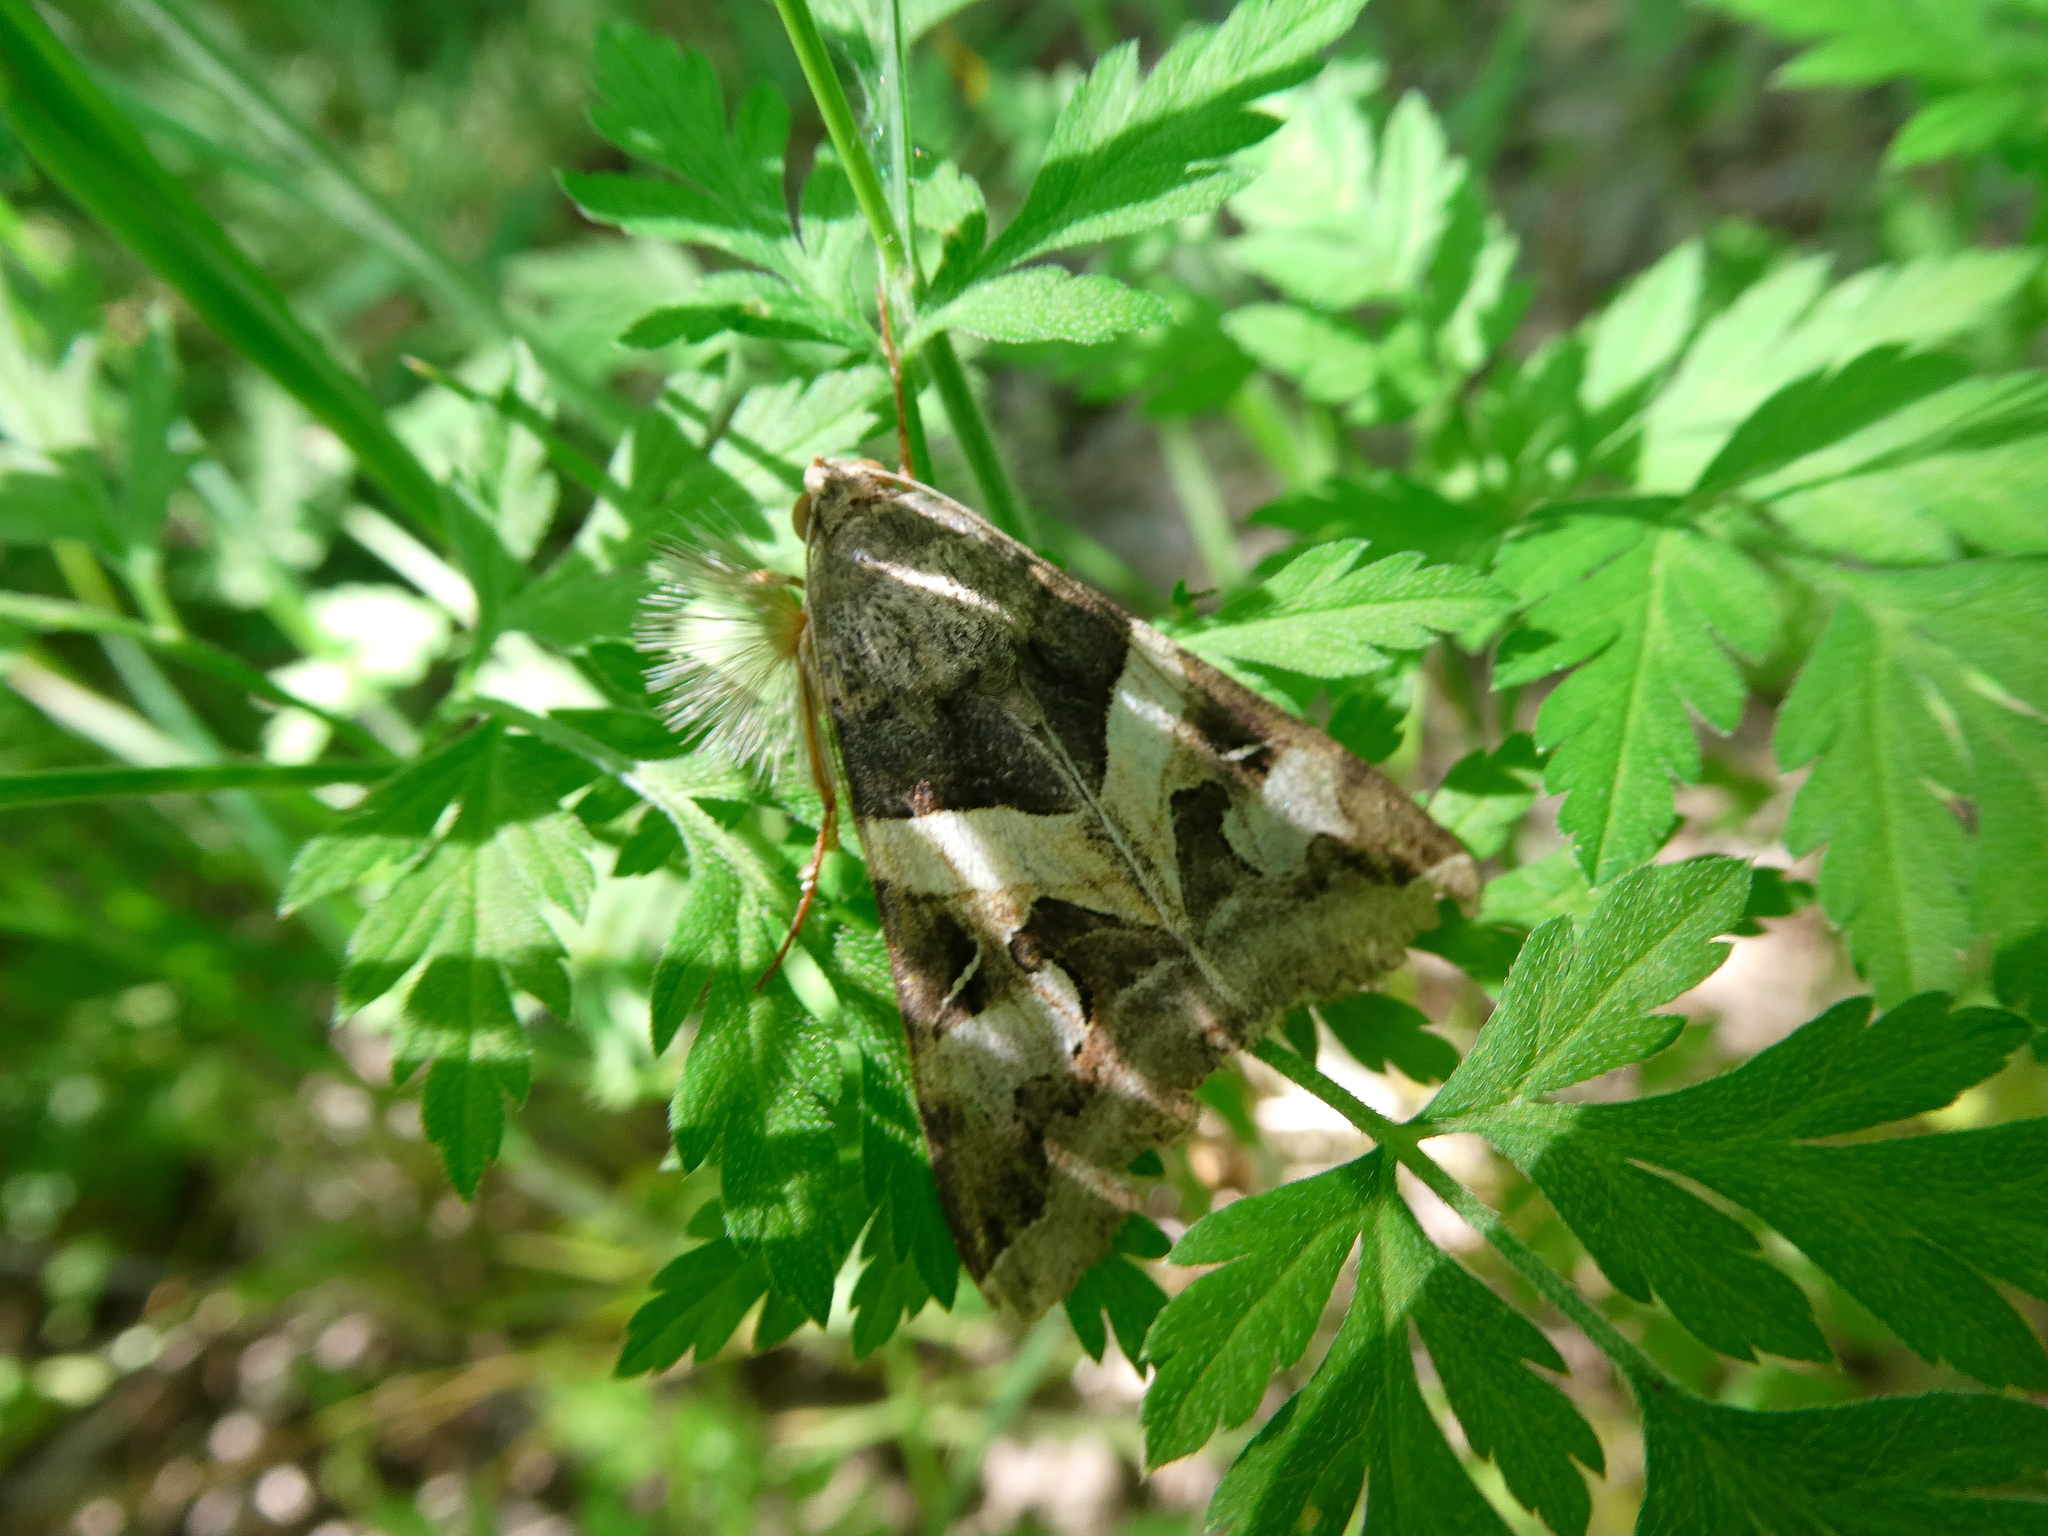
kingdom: Animalia
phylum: Arthropoda
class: Insecta
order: Lepidoptera
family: Erebidae
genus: Melipotis
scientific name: Melipotis indomita
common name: Moth
